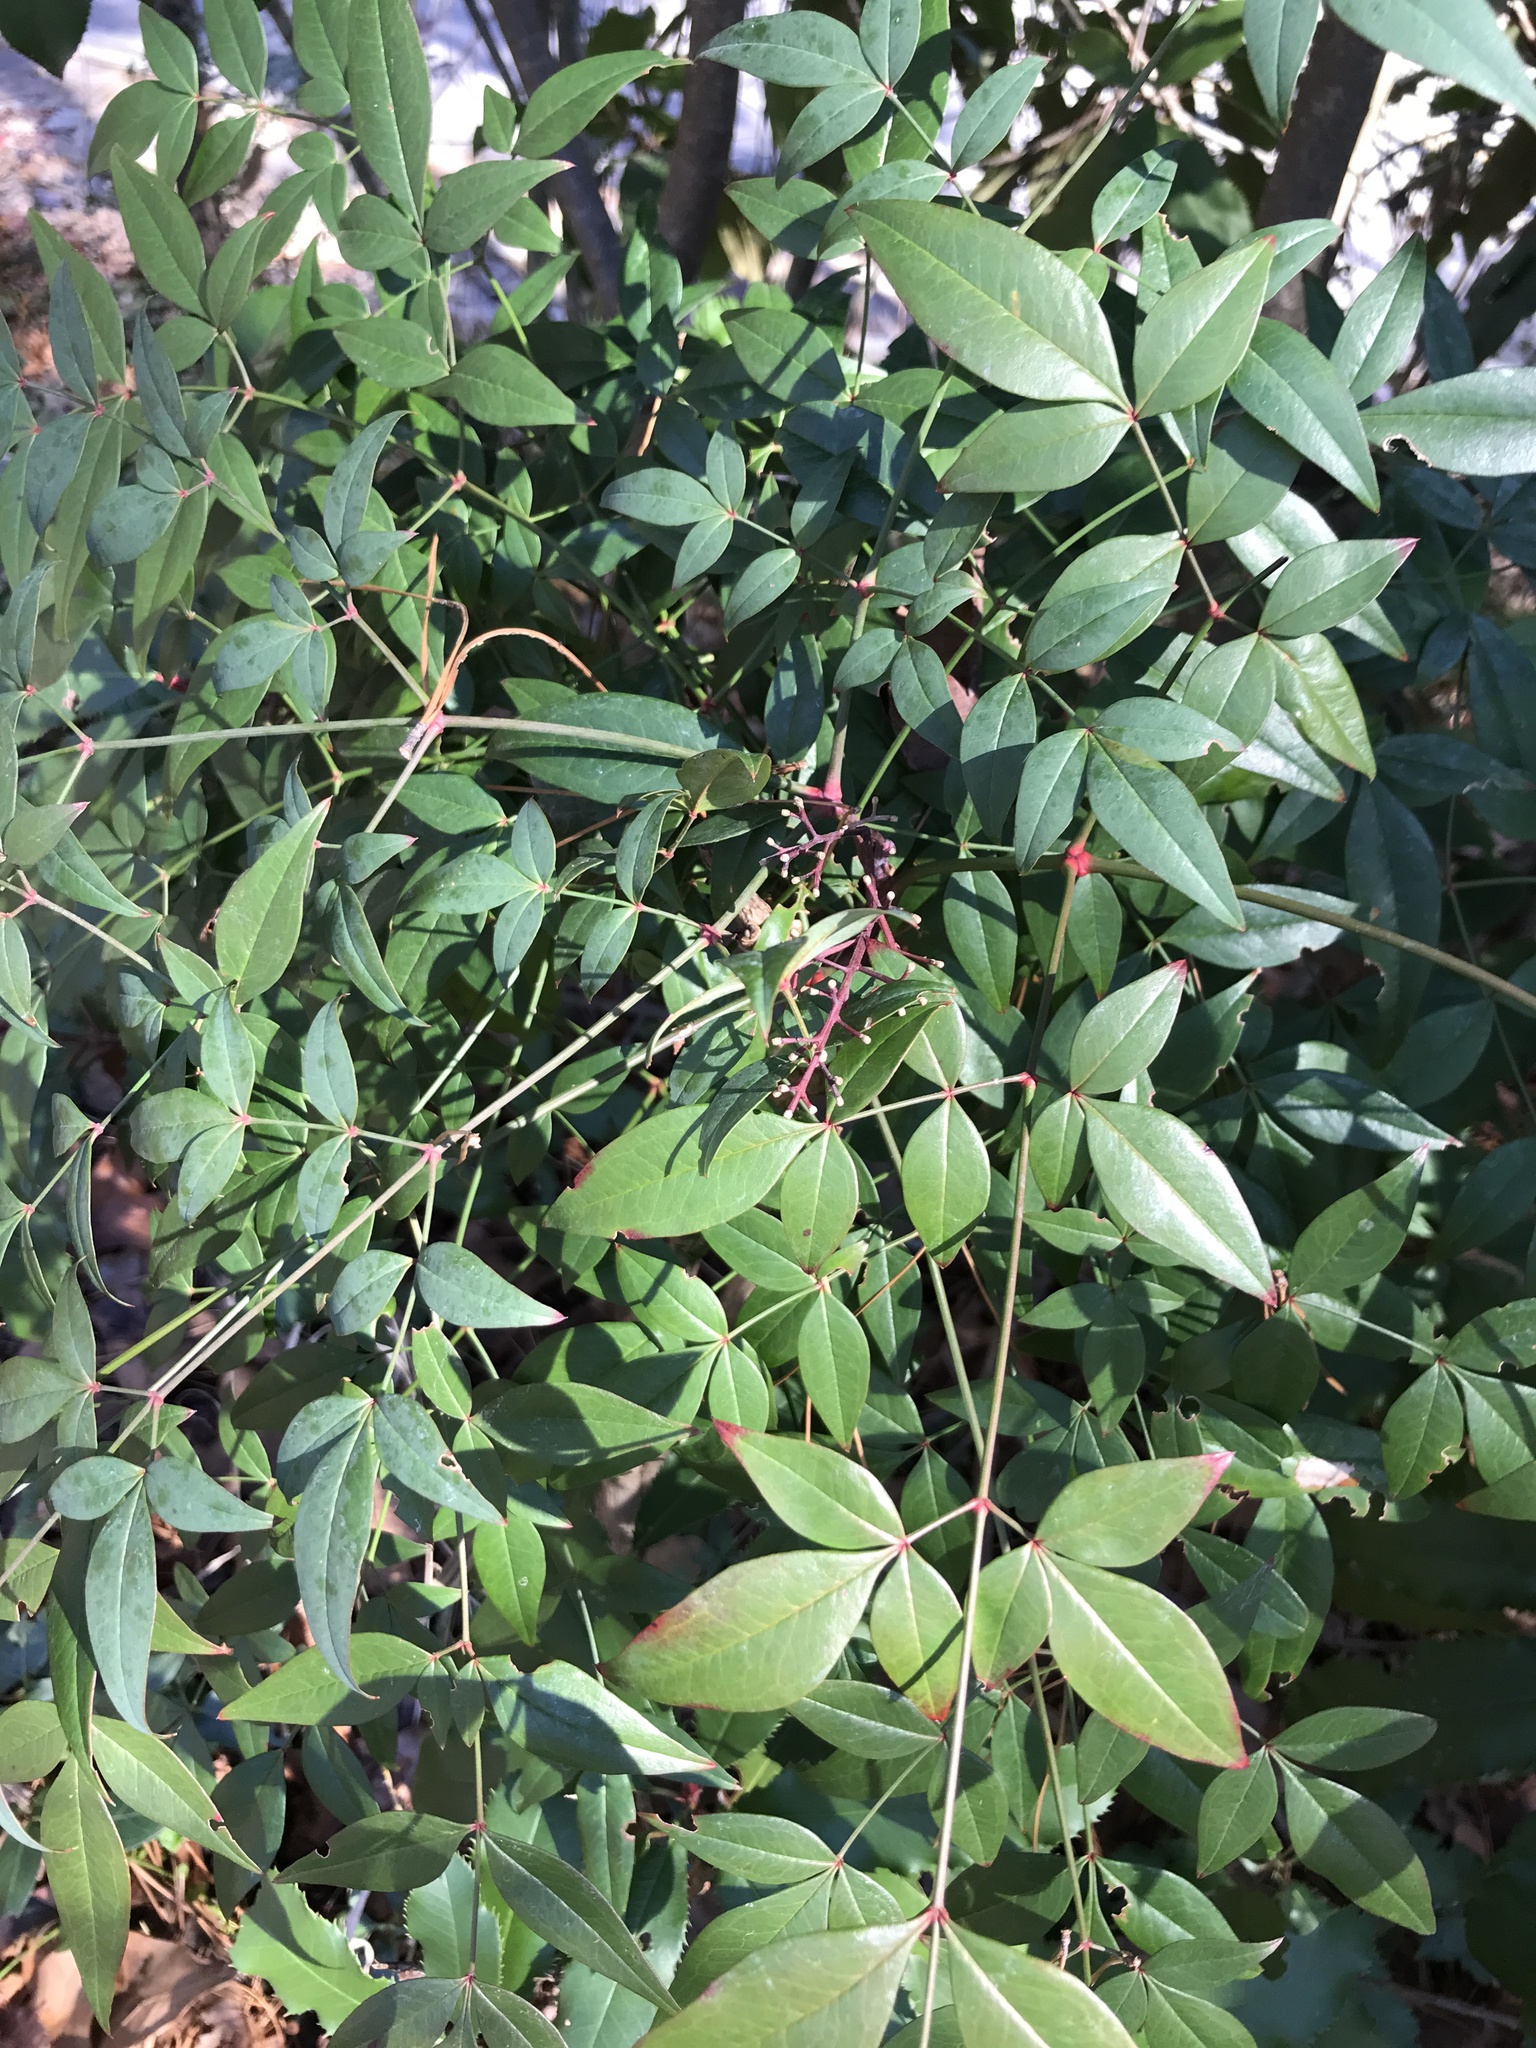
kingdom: Plantae
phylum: Tracheophyta
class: Magnoliopsida
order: Ranunculales
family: Berberidaceae
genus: Nandina
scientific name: Nandina domestica
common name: Sacred bamboo
